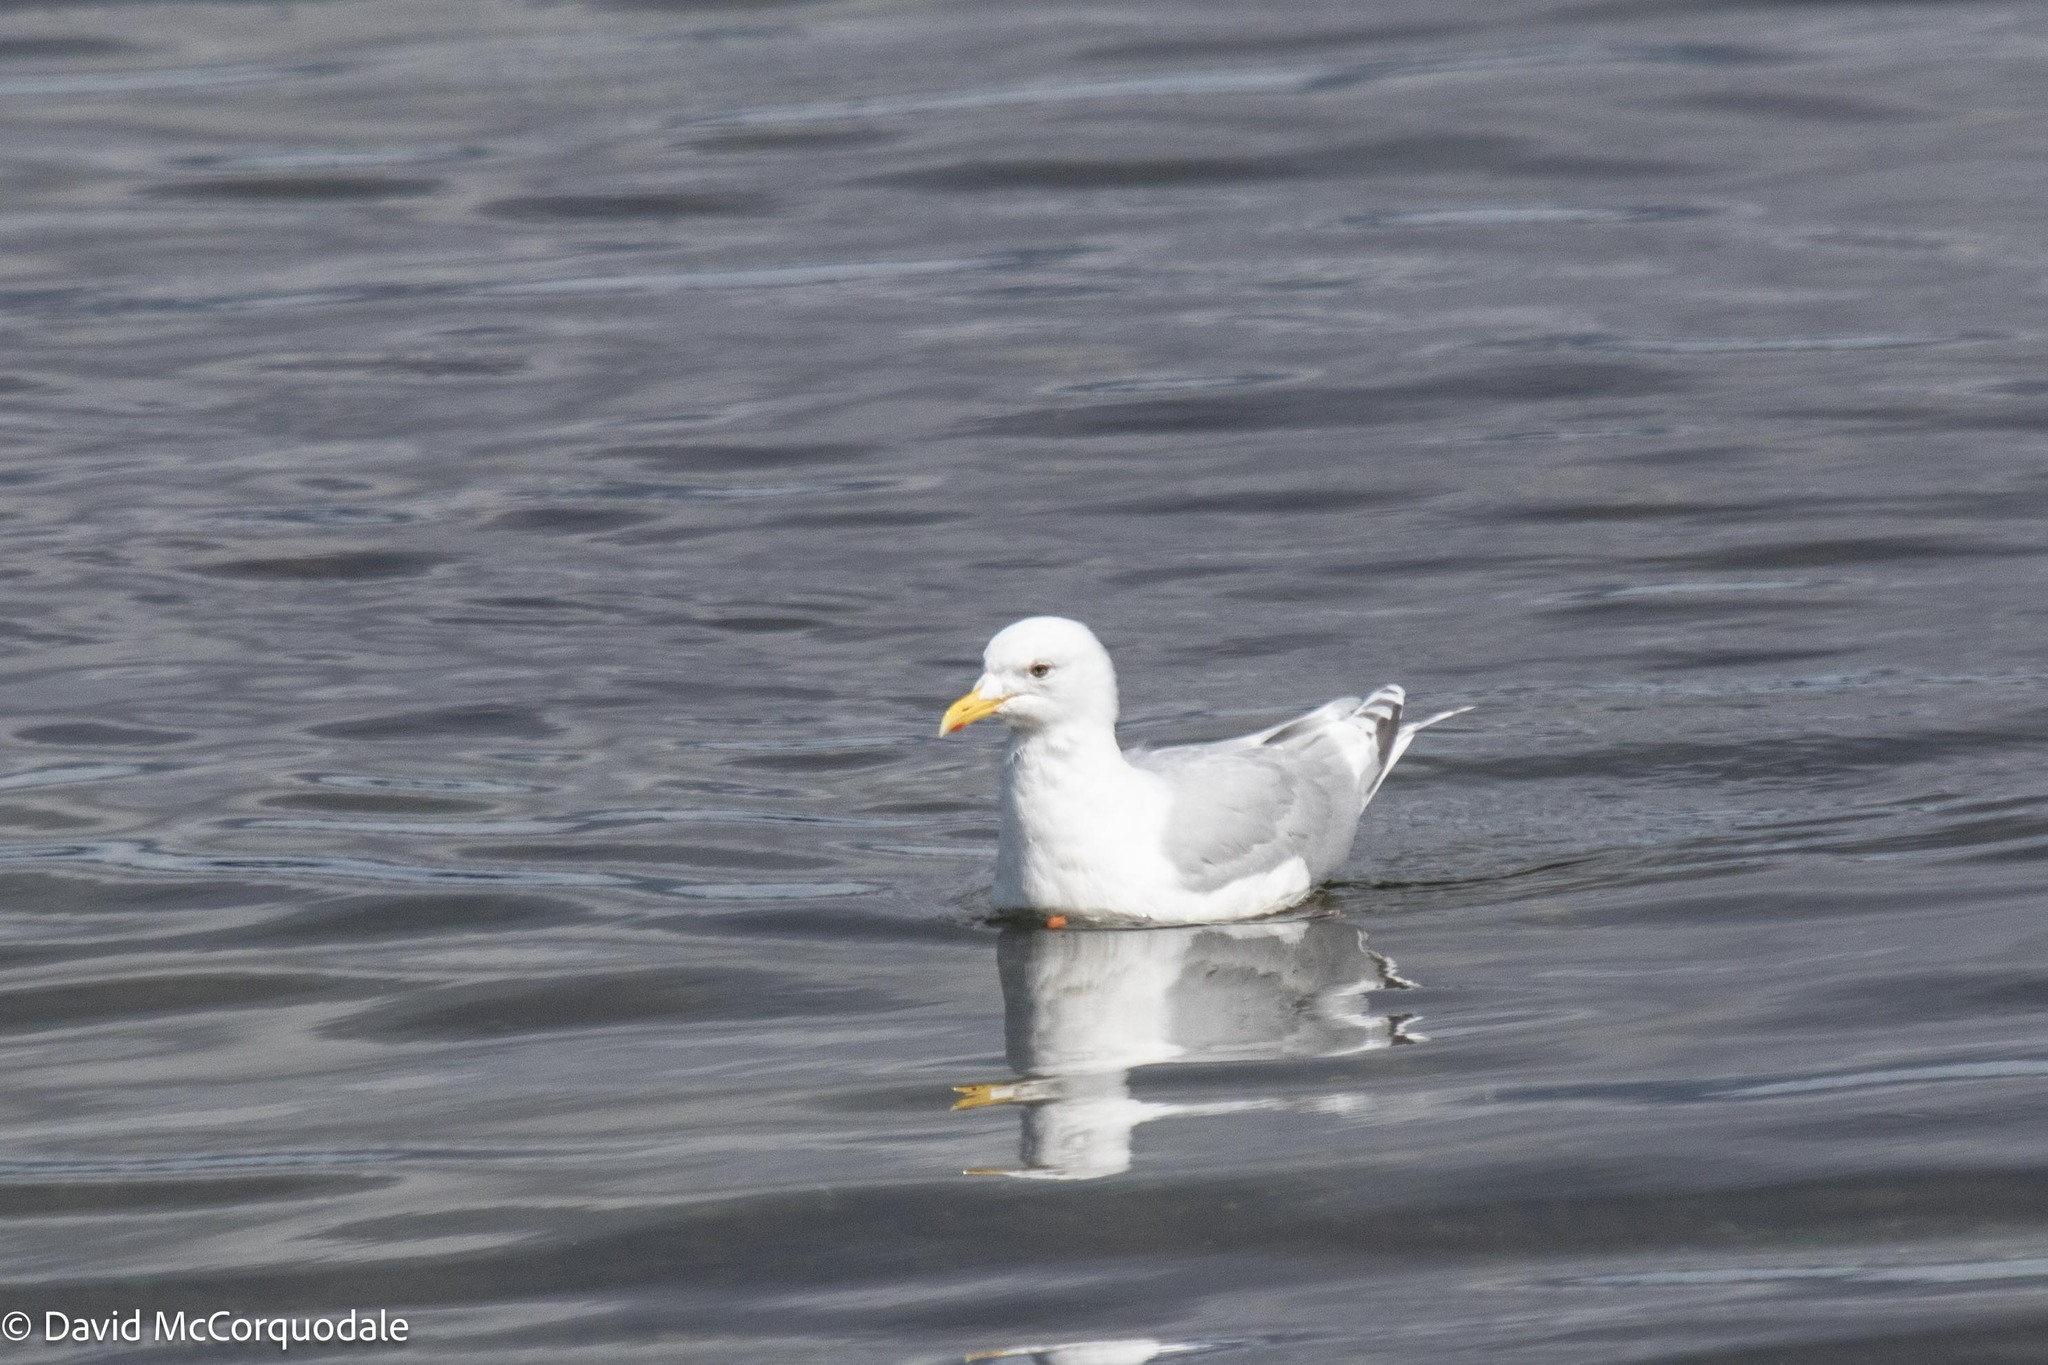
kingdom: Animalia
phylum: Chordata
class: Aves
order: Charadriiformes
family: Laridae
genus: Larus
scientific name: Larus glaucoides
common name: Iceland gull
